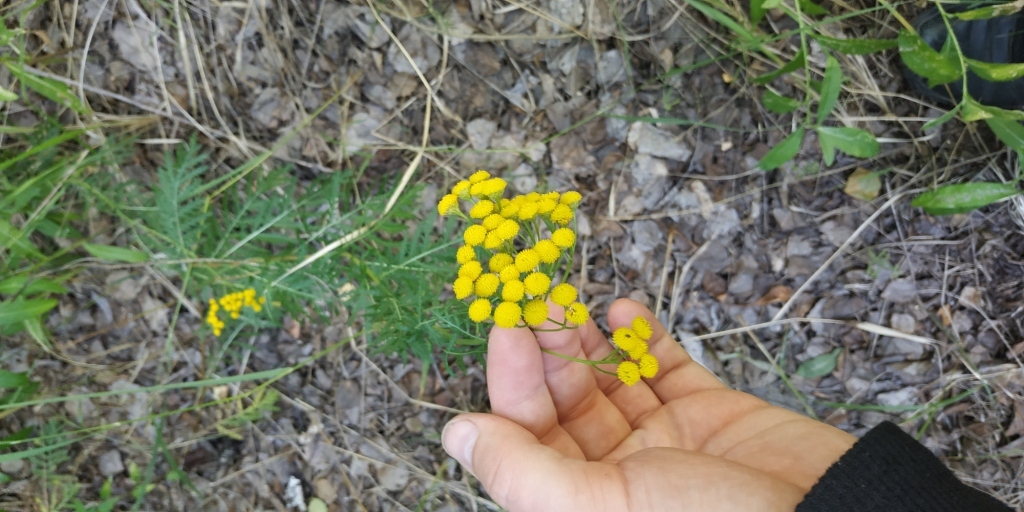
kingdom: Plantae
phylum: Tracheophyta
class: Magnoliopsida
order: Asterales
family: Asteraceae
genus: Tanacetum
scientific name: Tanacetum vulgare
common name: Common tansy
